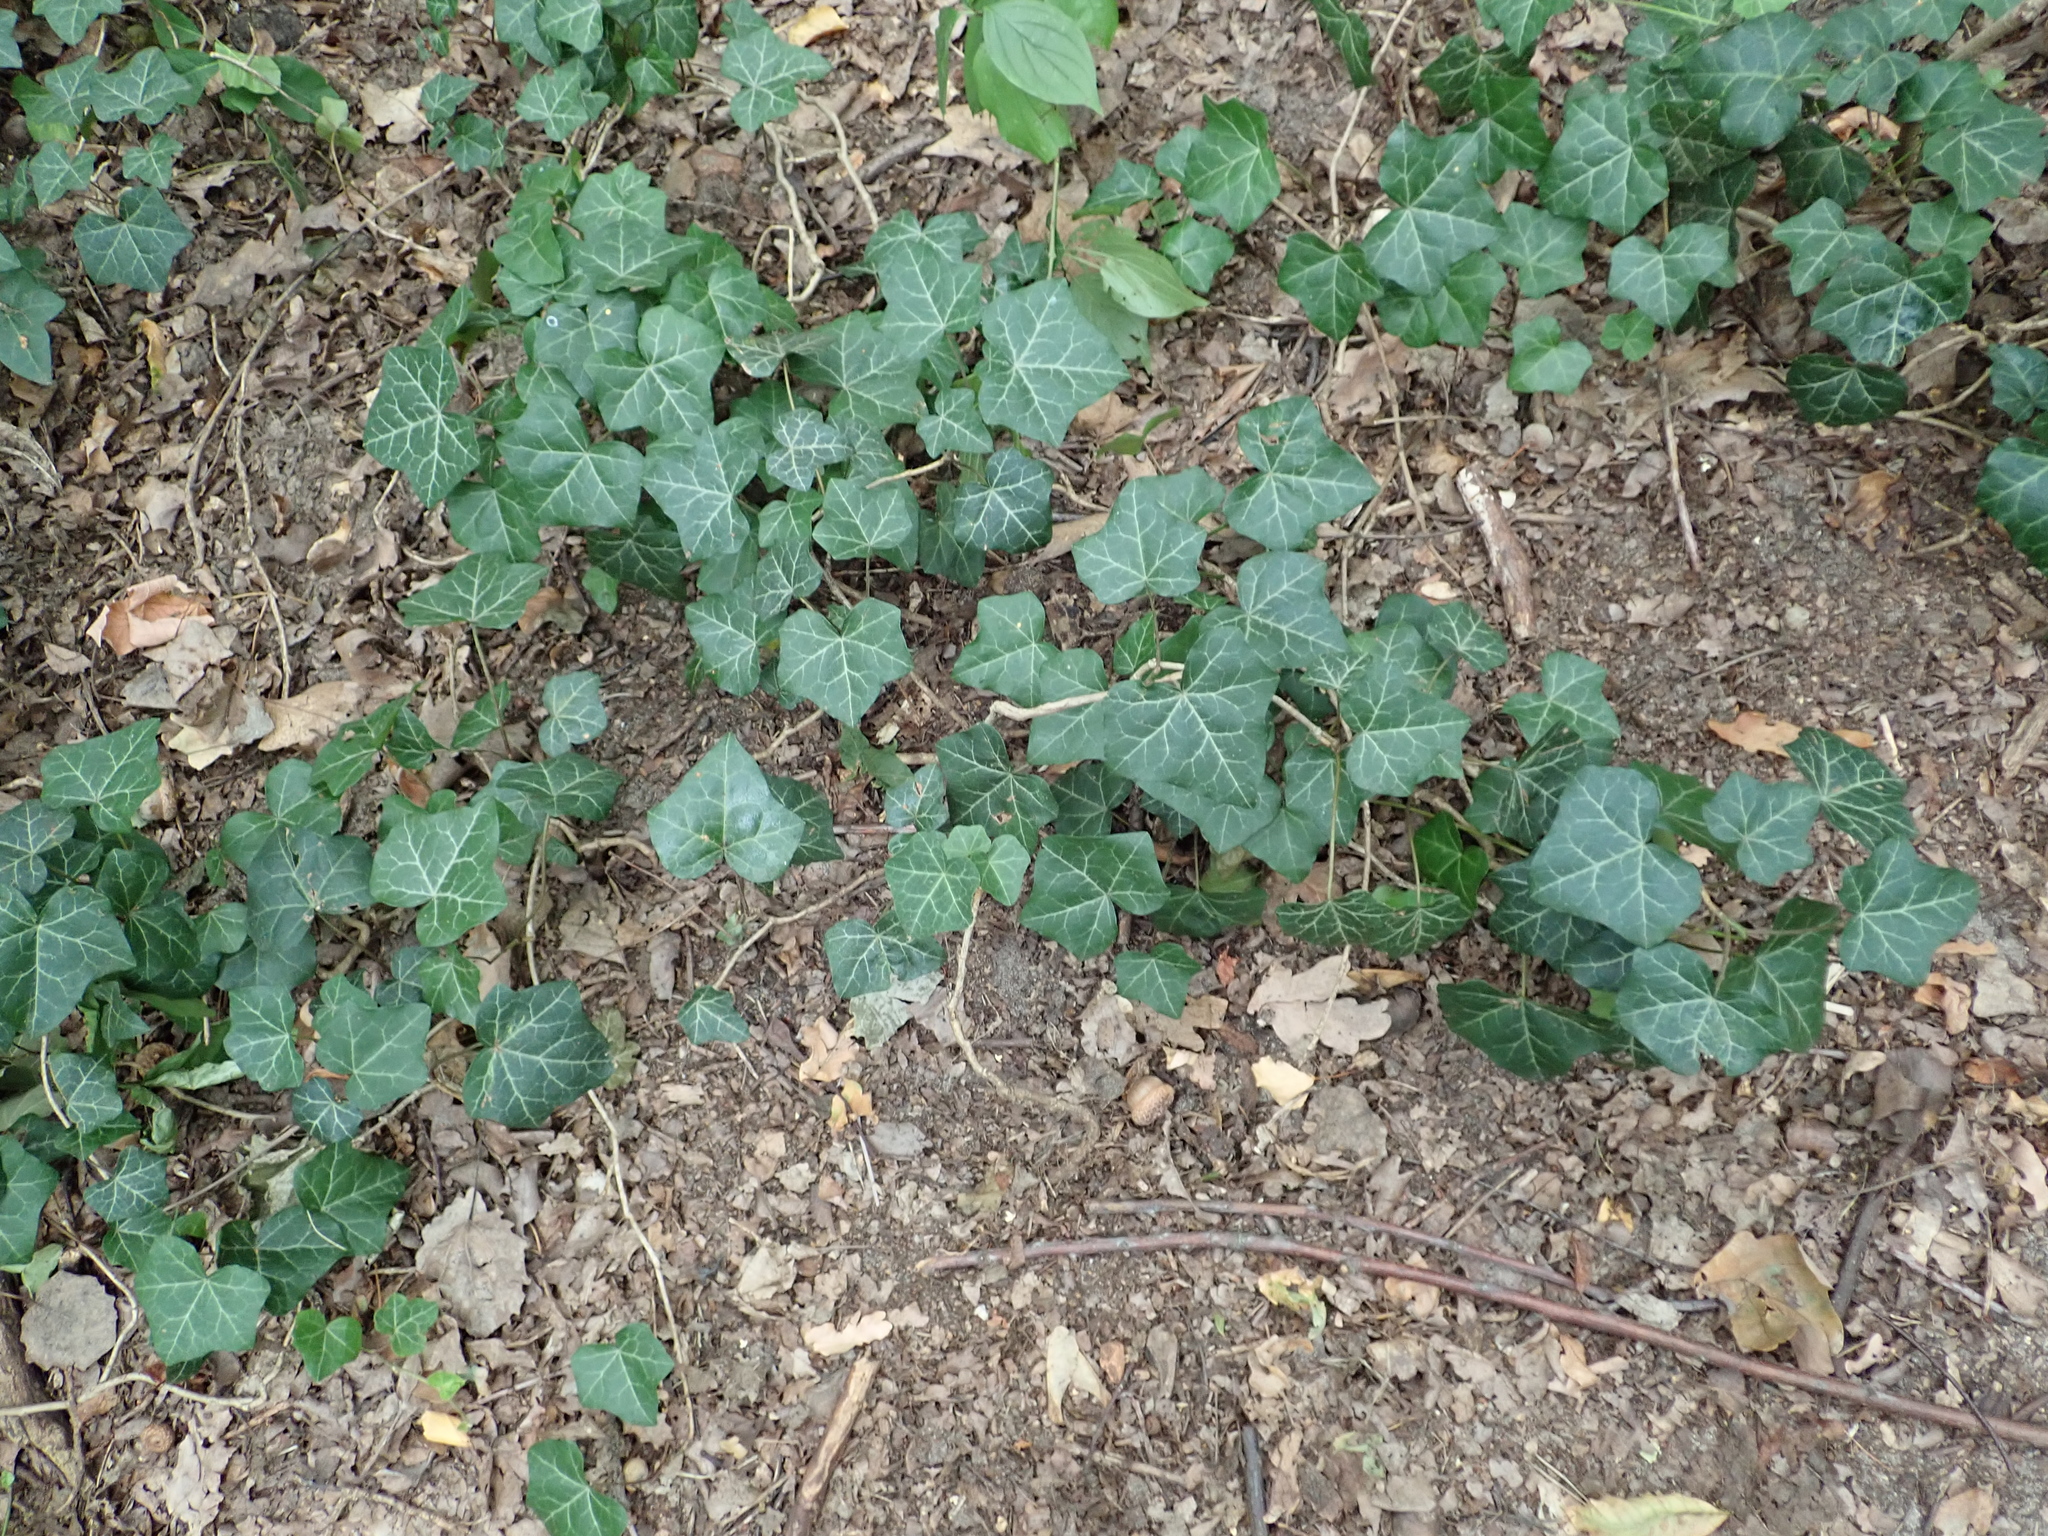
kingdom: Plantae
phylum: Tracheophyta
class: Magnoliopsida
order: Apiales
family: Araliaceae
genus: Hedera
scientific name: Hedera helix
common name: Ivy
